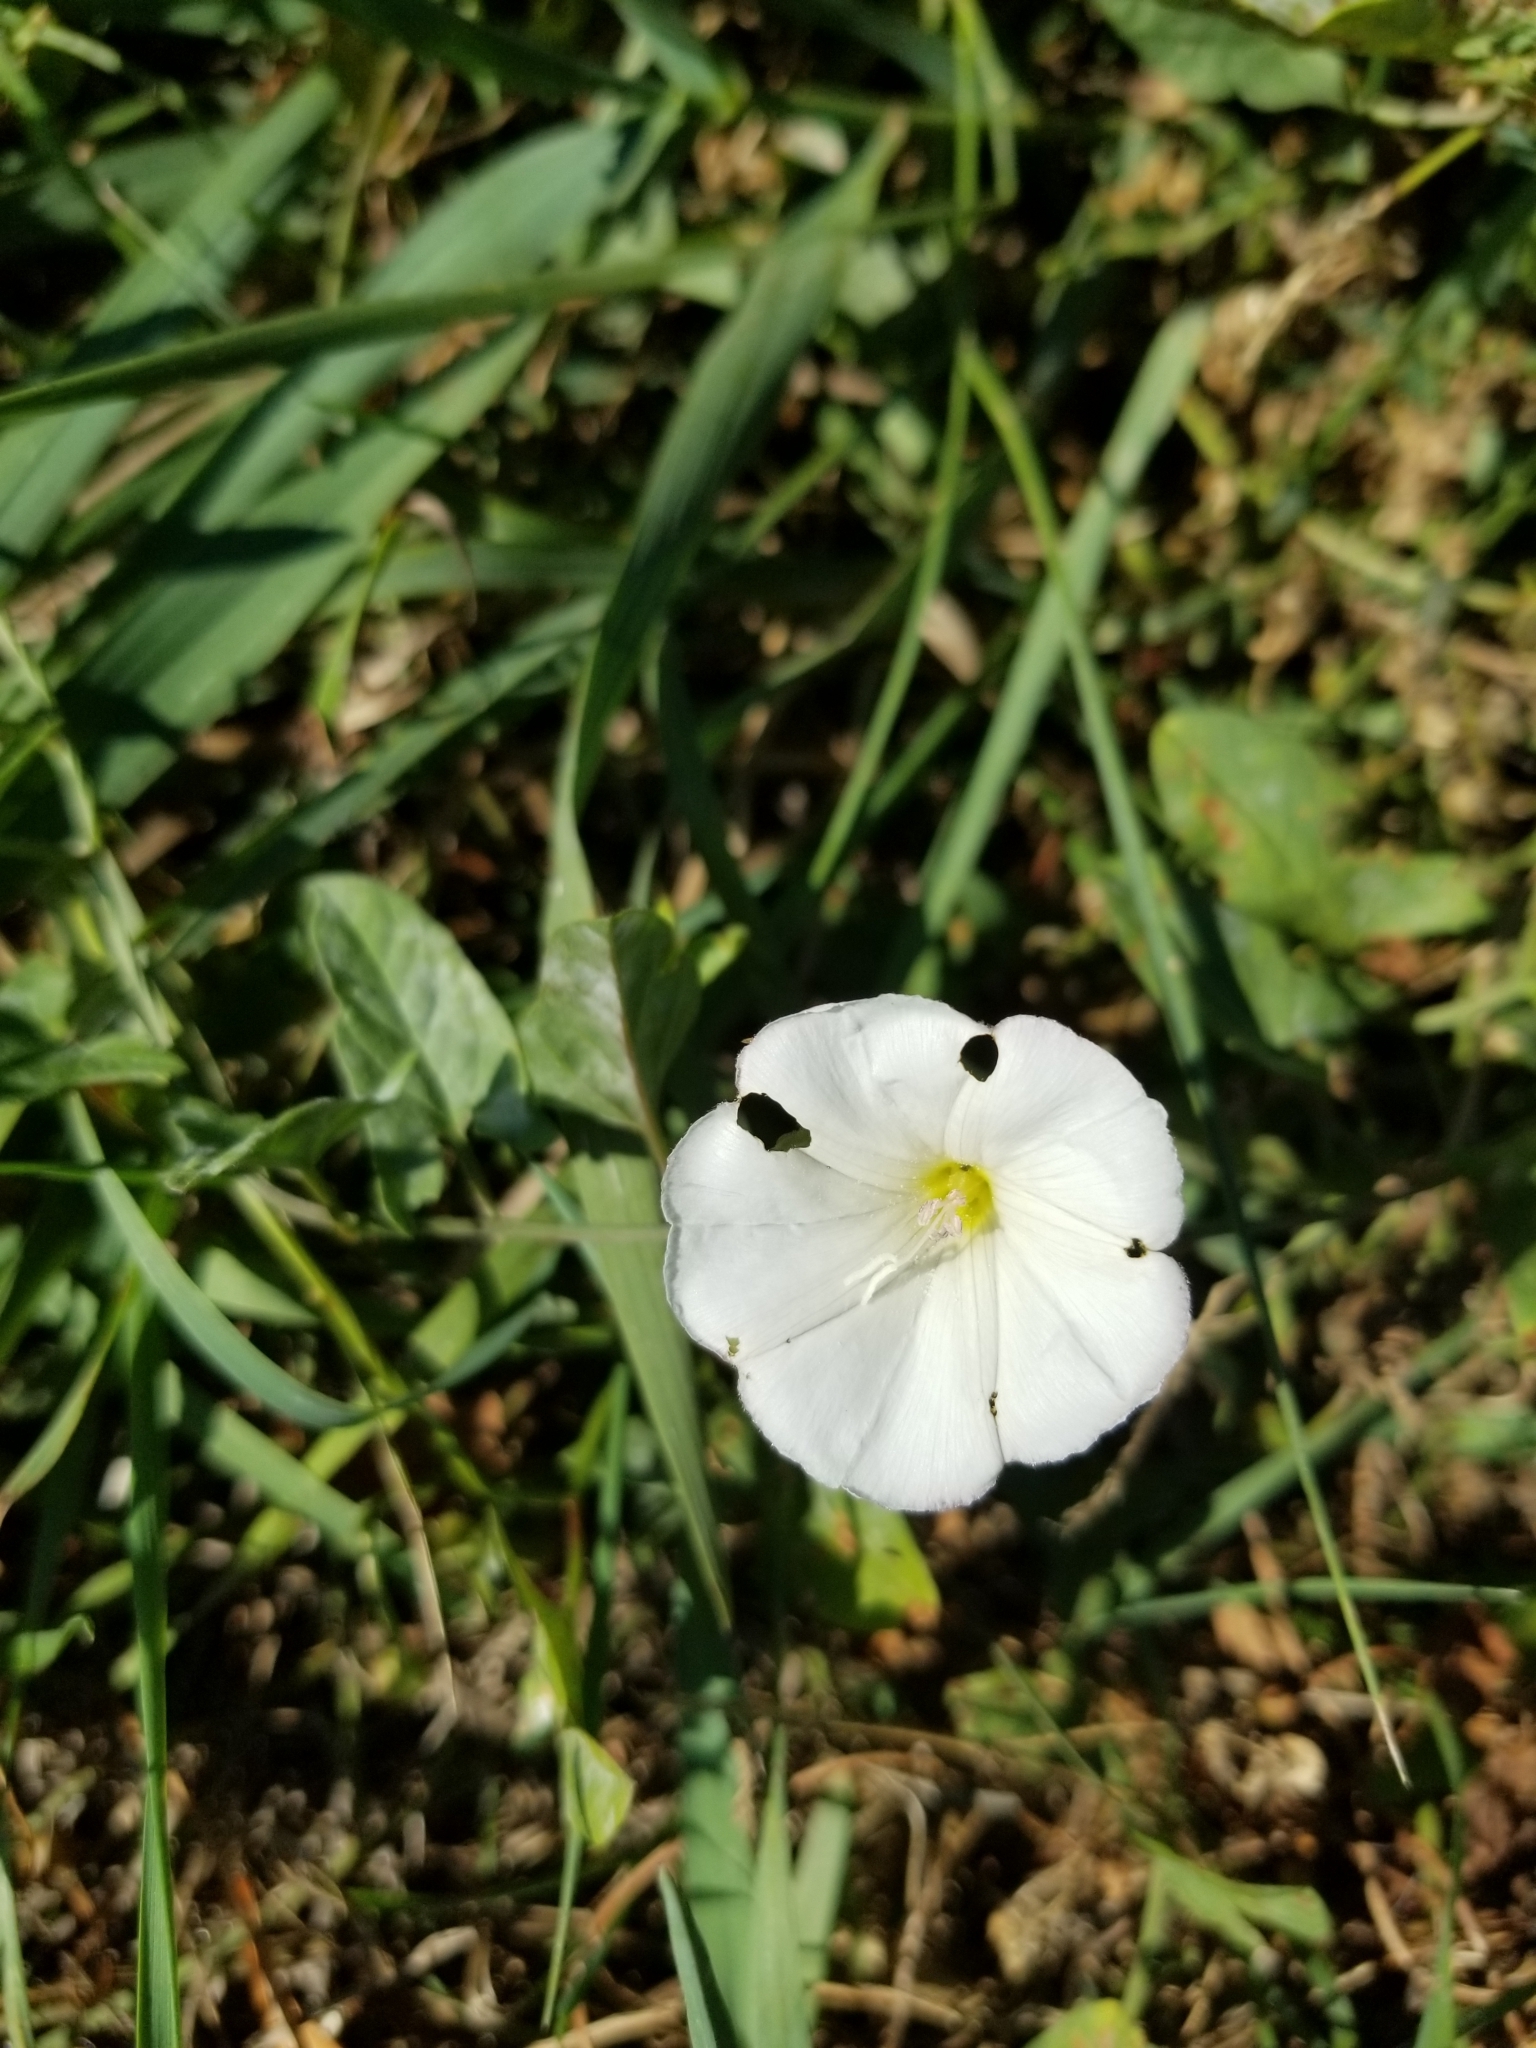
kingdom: Plantae
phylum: Tracheophyta
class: Magnoliopsida
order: Solanales
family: Convolvulaceae
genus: Convolvulus
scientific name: Convolvulus arvensis
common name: Field bindweed
